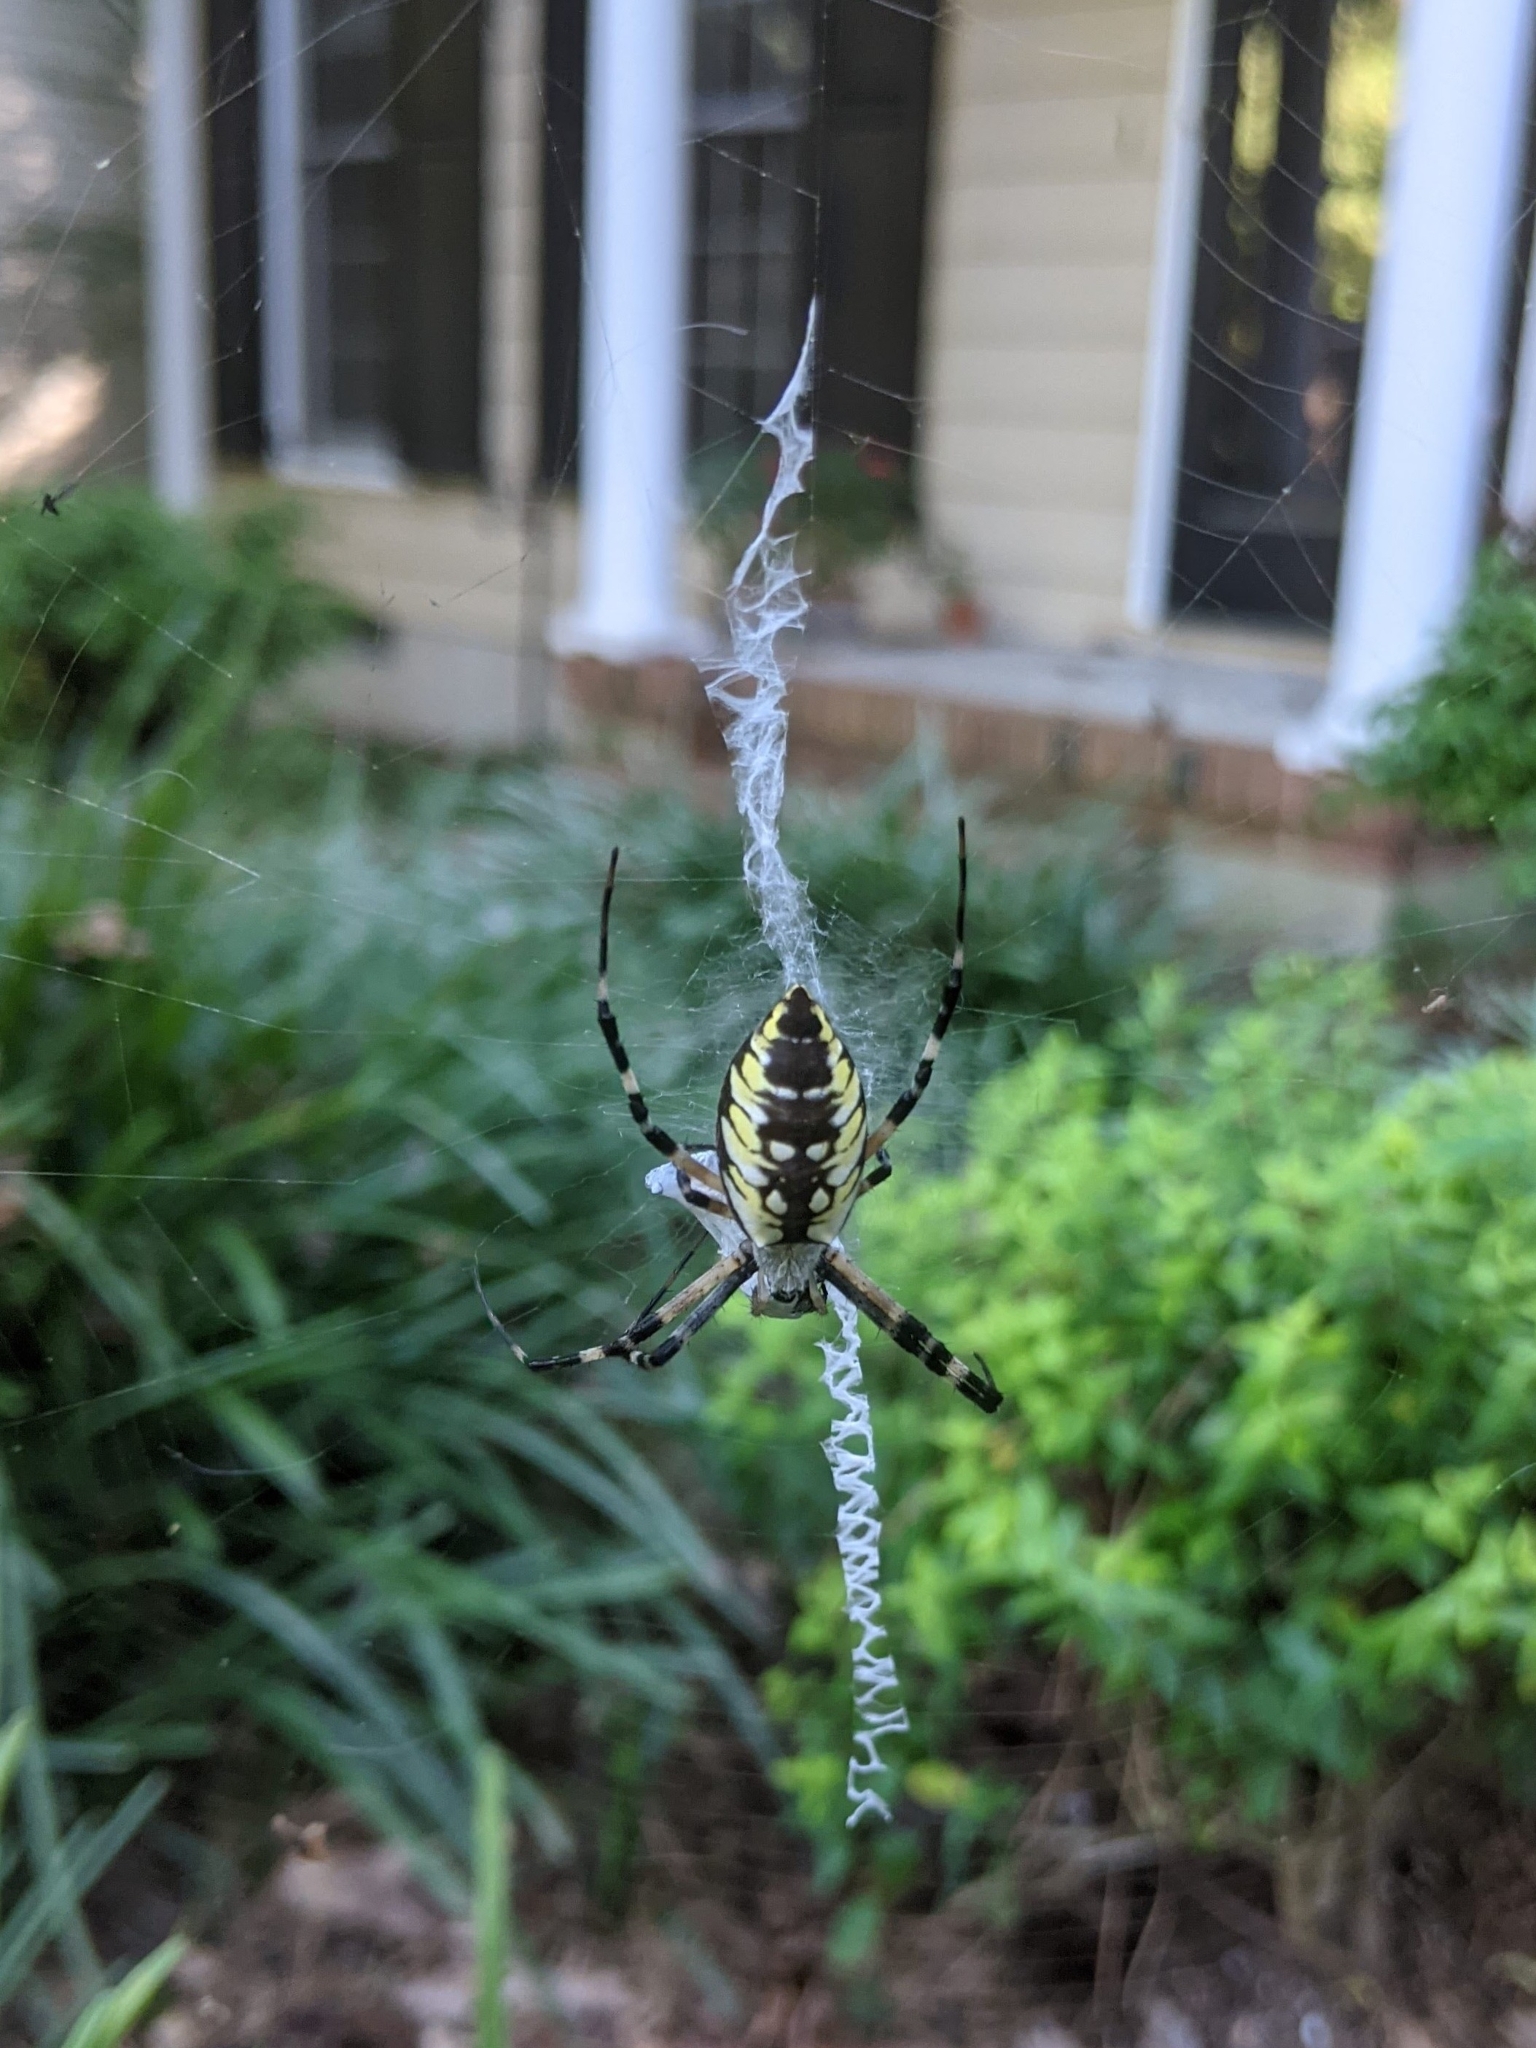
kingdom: Animalia
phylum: Arthropoda
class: Arachnida
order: Araneae
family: Araneidae
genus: Argiope
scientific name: Argiope aurantia
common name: Orb weavers
